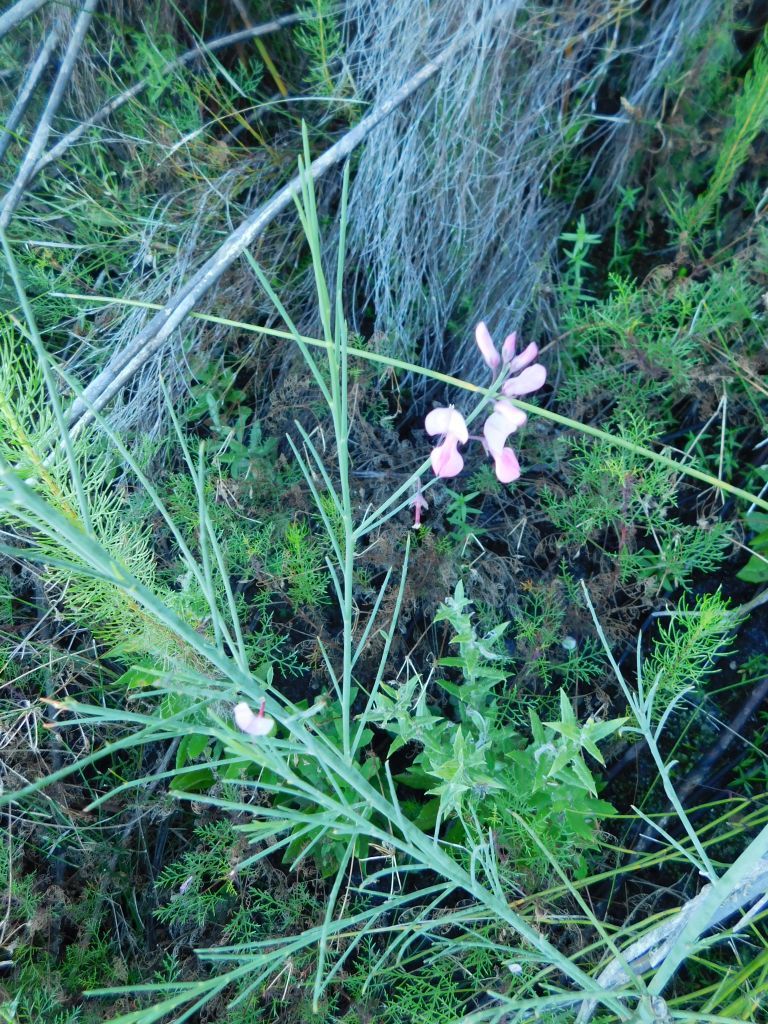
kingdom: Plantae
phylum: Tracheophyta
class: Magnoliopsida
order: Fabales
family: Fabaceae
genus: Indigofera
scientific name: Indigofera filifolia
